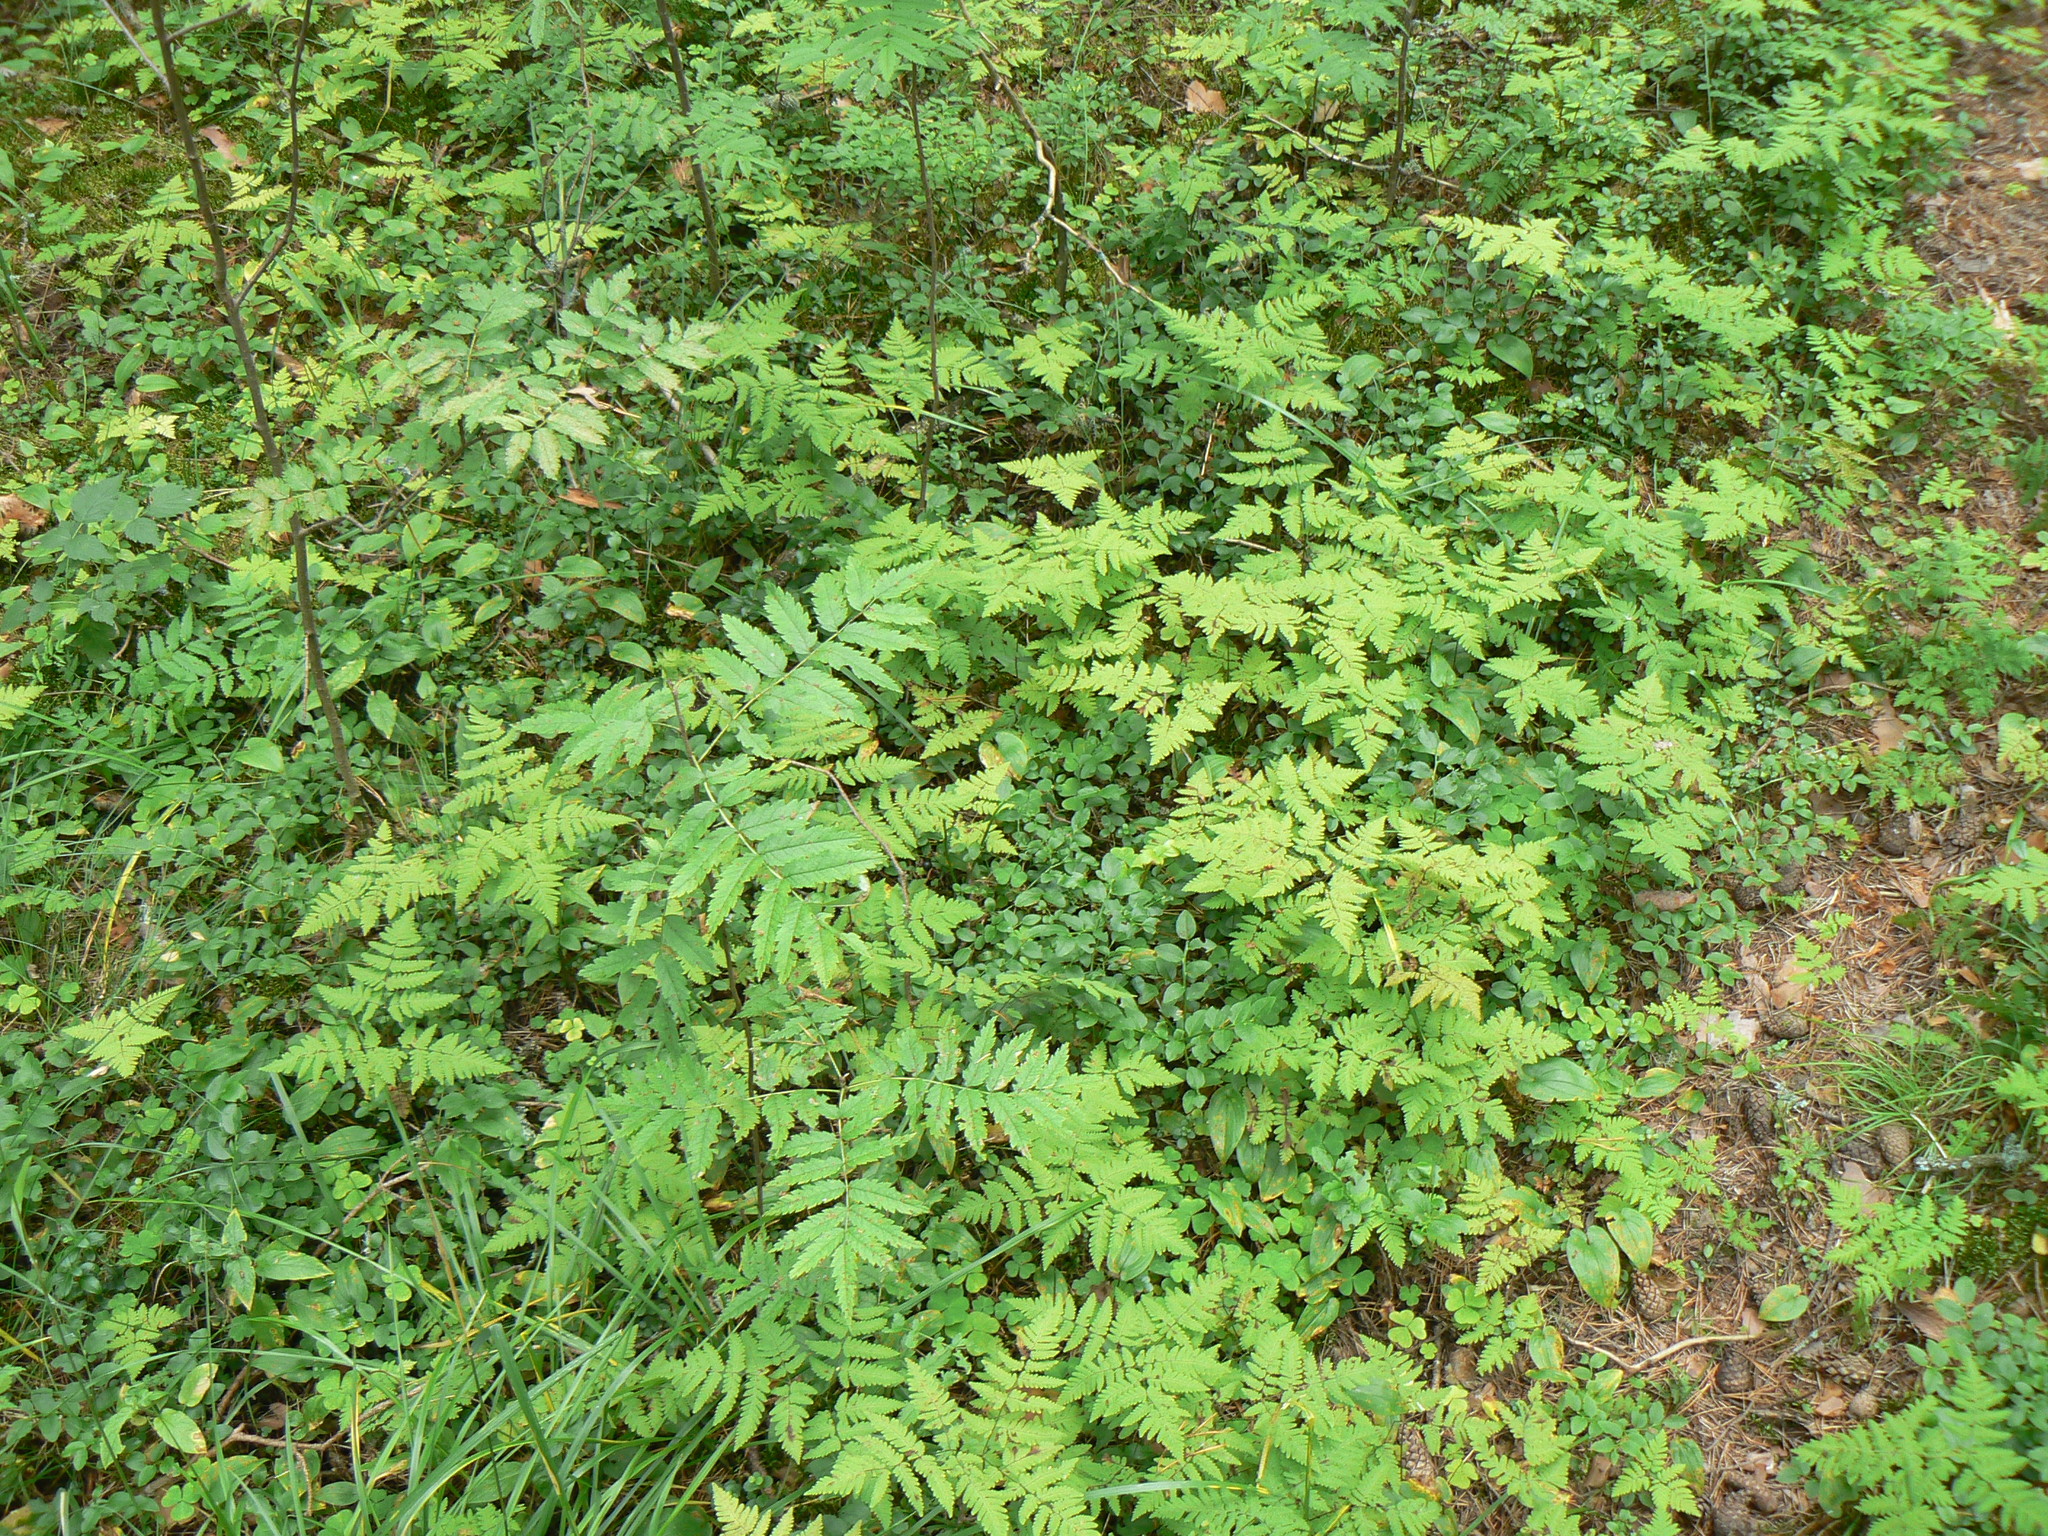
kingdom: Plantae
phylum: Tracheophyta
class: Polypodiopsida
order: Polypodiales
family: Cystopteridaceae
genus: Gymnocarpium
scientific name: Gymnocarpium dryopteris
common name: Oak fern
